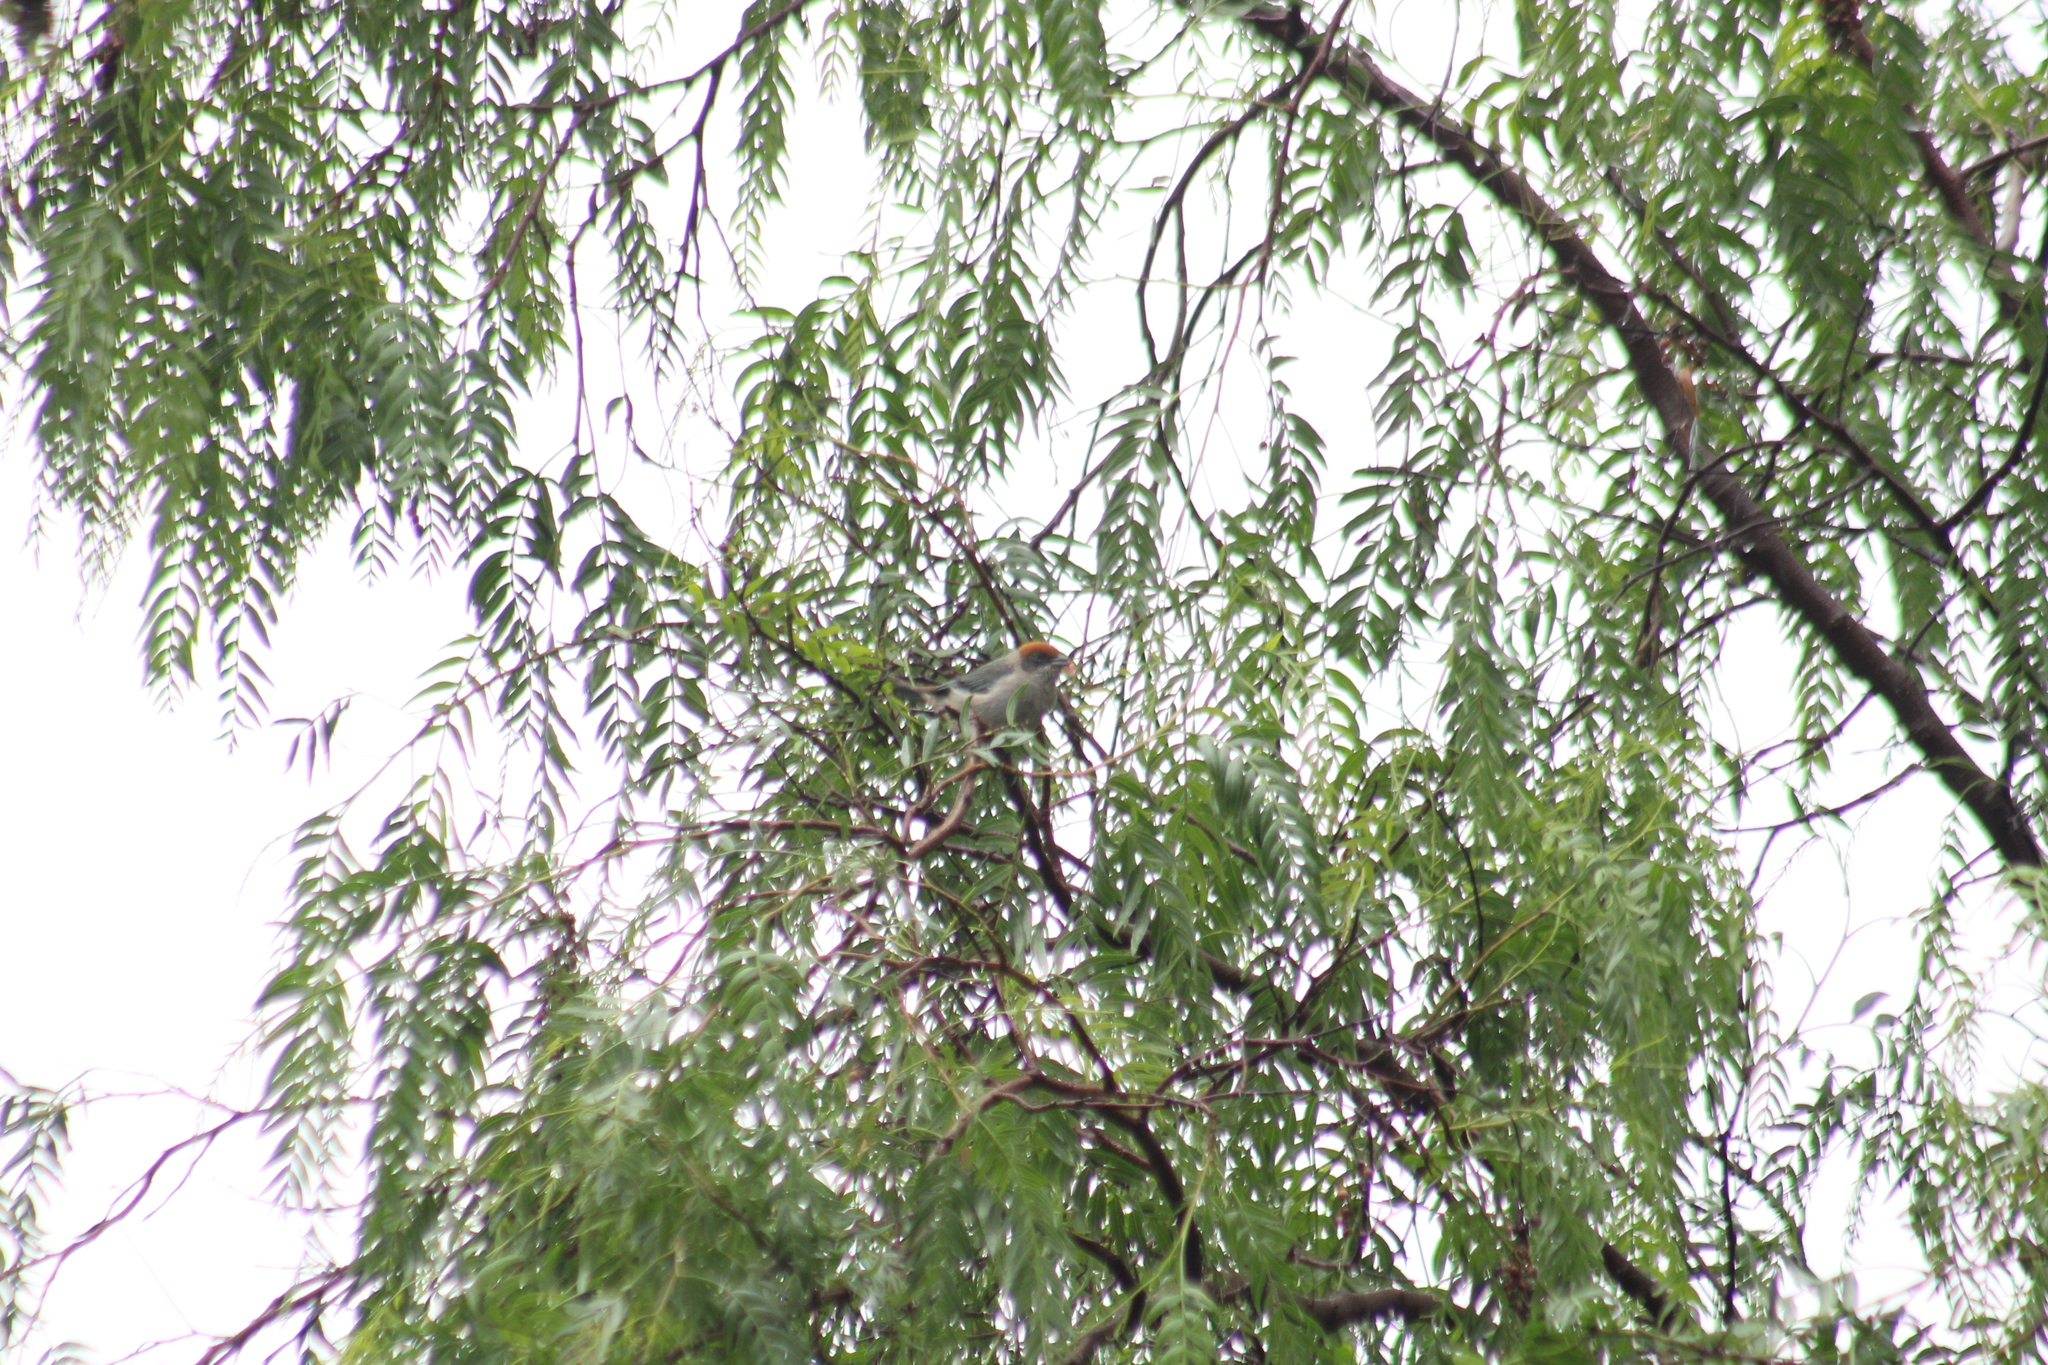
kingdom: Animalia
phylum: Chordata
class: Aves
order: Passeriformes
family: Thraupidae
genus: Stilpnia
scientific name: Stilpnia vitriolina
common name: Scrub tanager
